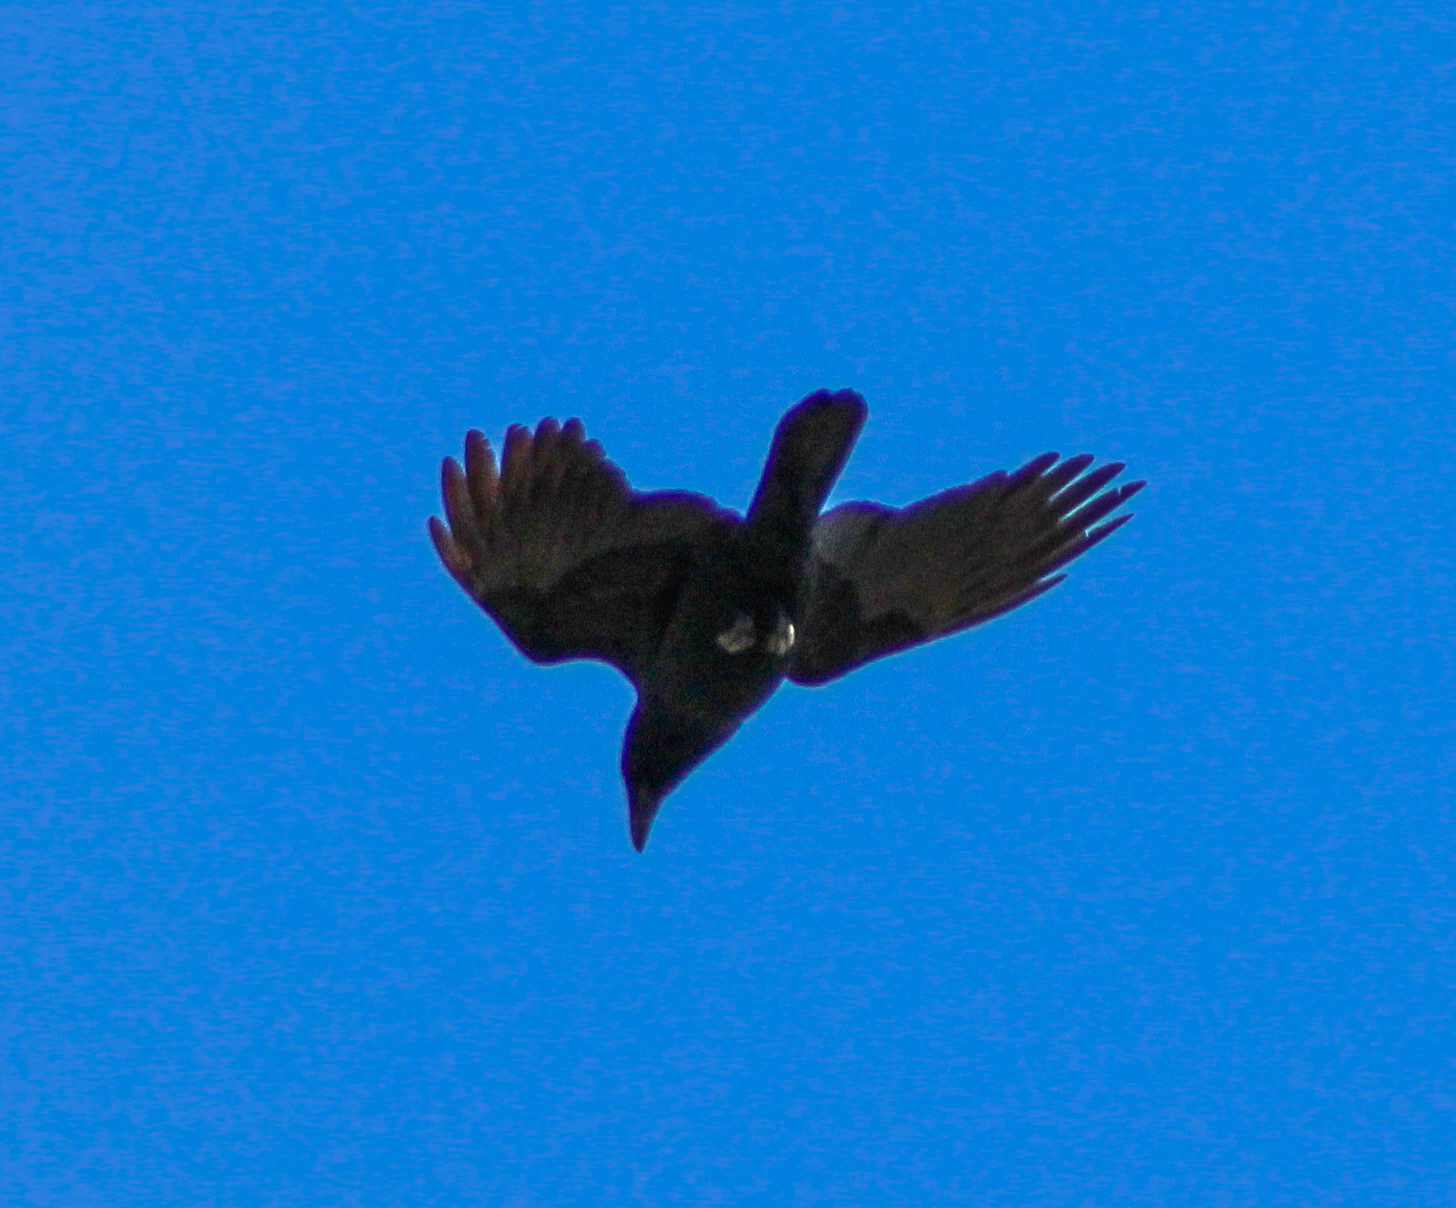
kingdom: Animalia
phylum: Chordata
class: Aves
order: Passeriformes
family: Corvidae
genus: Corvus
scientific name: Corvus brachyrhynchos
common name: American crow
